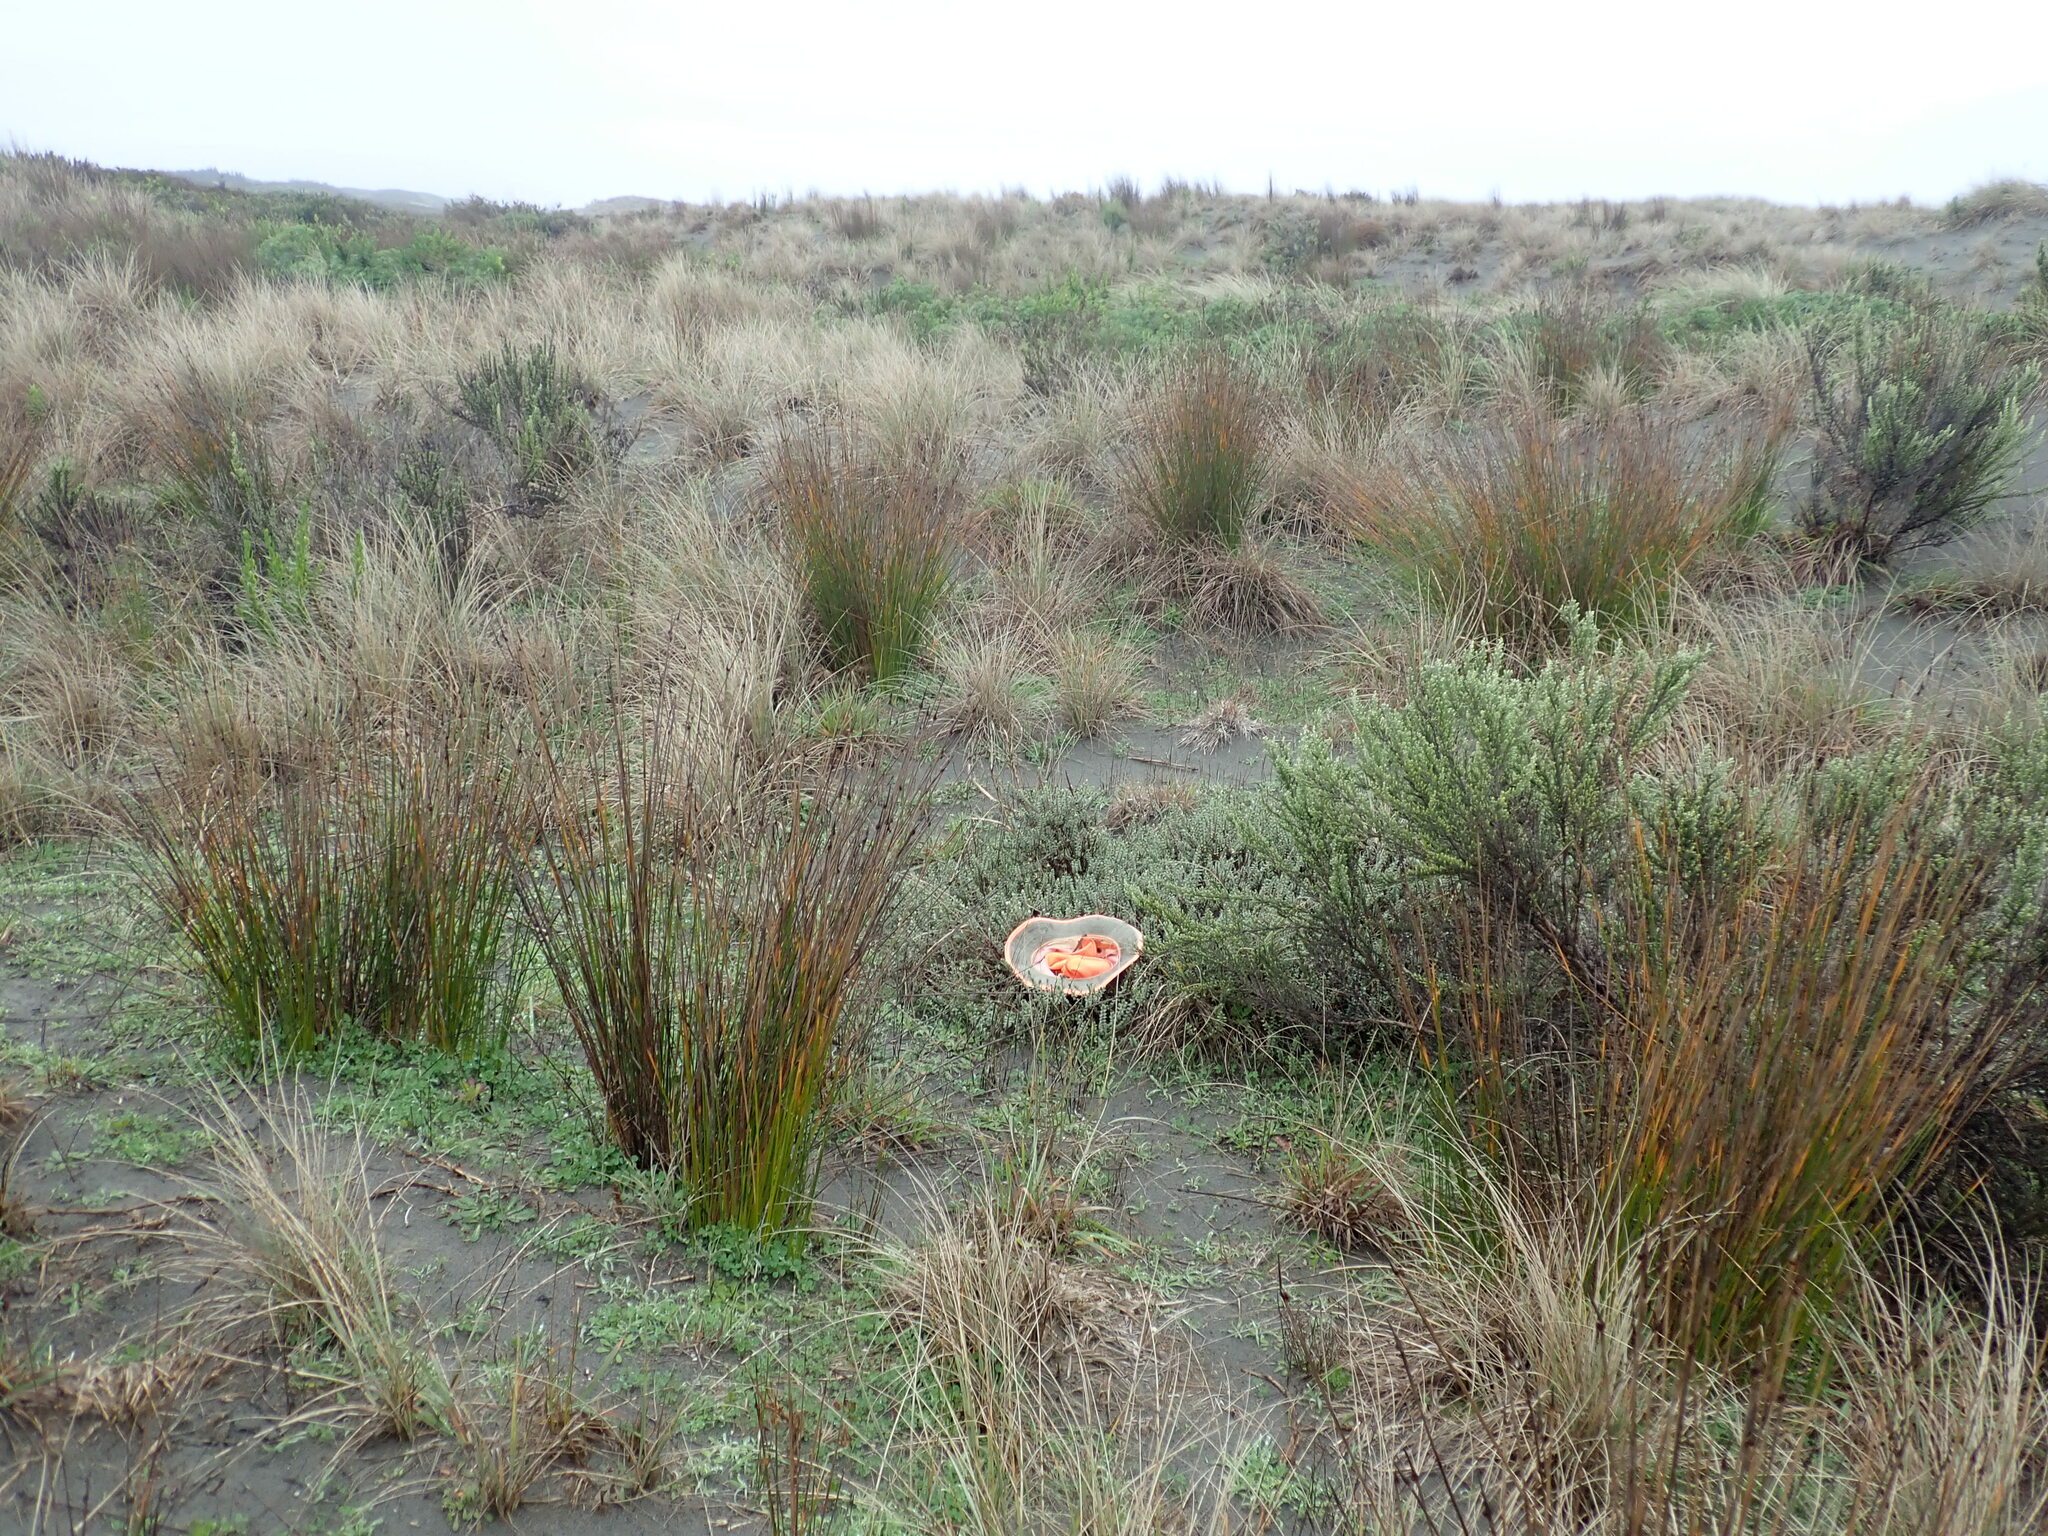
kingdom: Animalia
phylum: Arthropoda
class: Arachnida
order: Araneae
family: Theridiidae
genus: Latrodectus
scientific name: Latrodectus katipo
